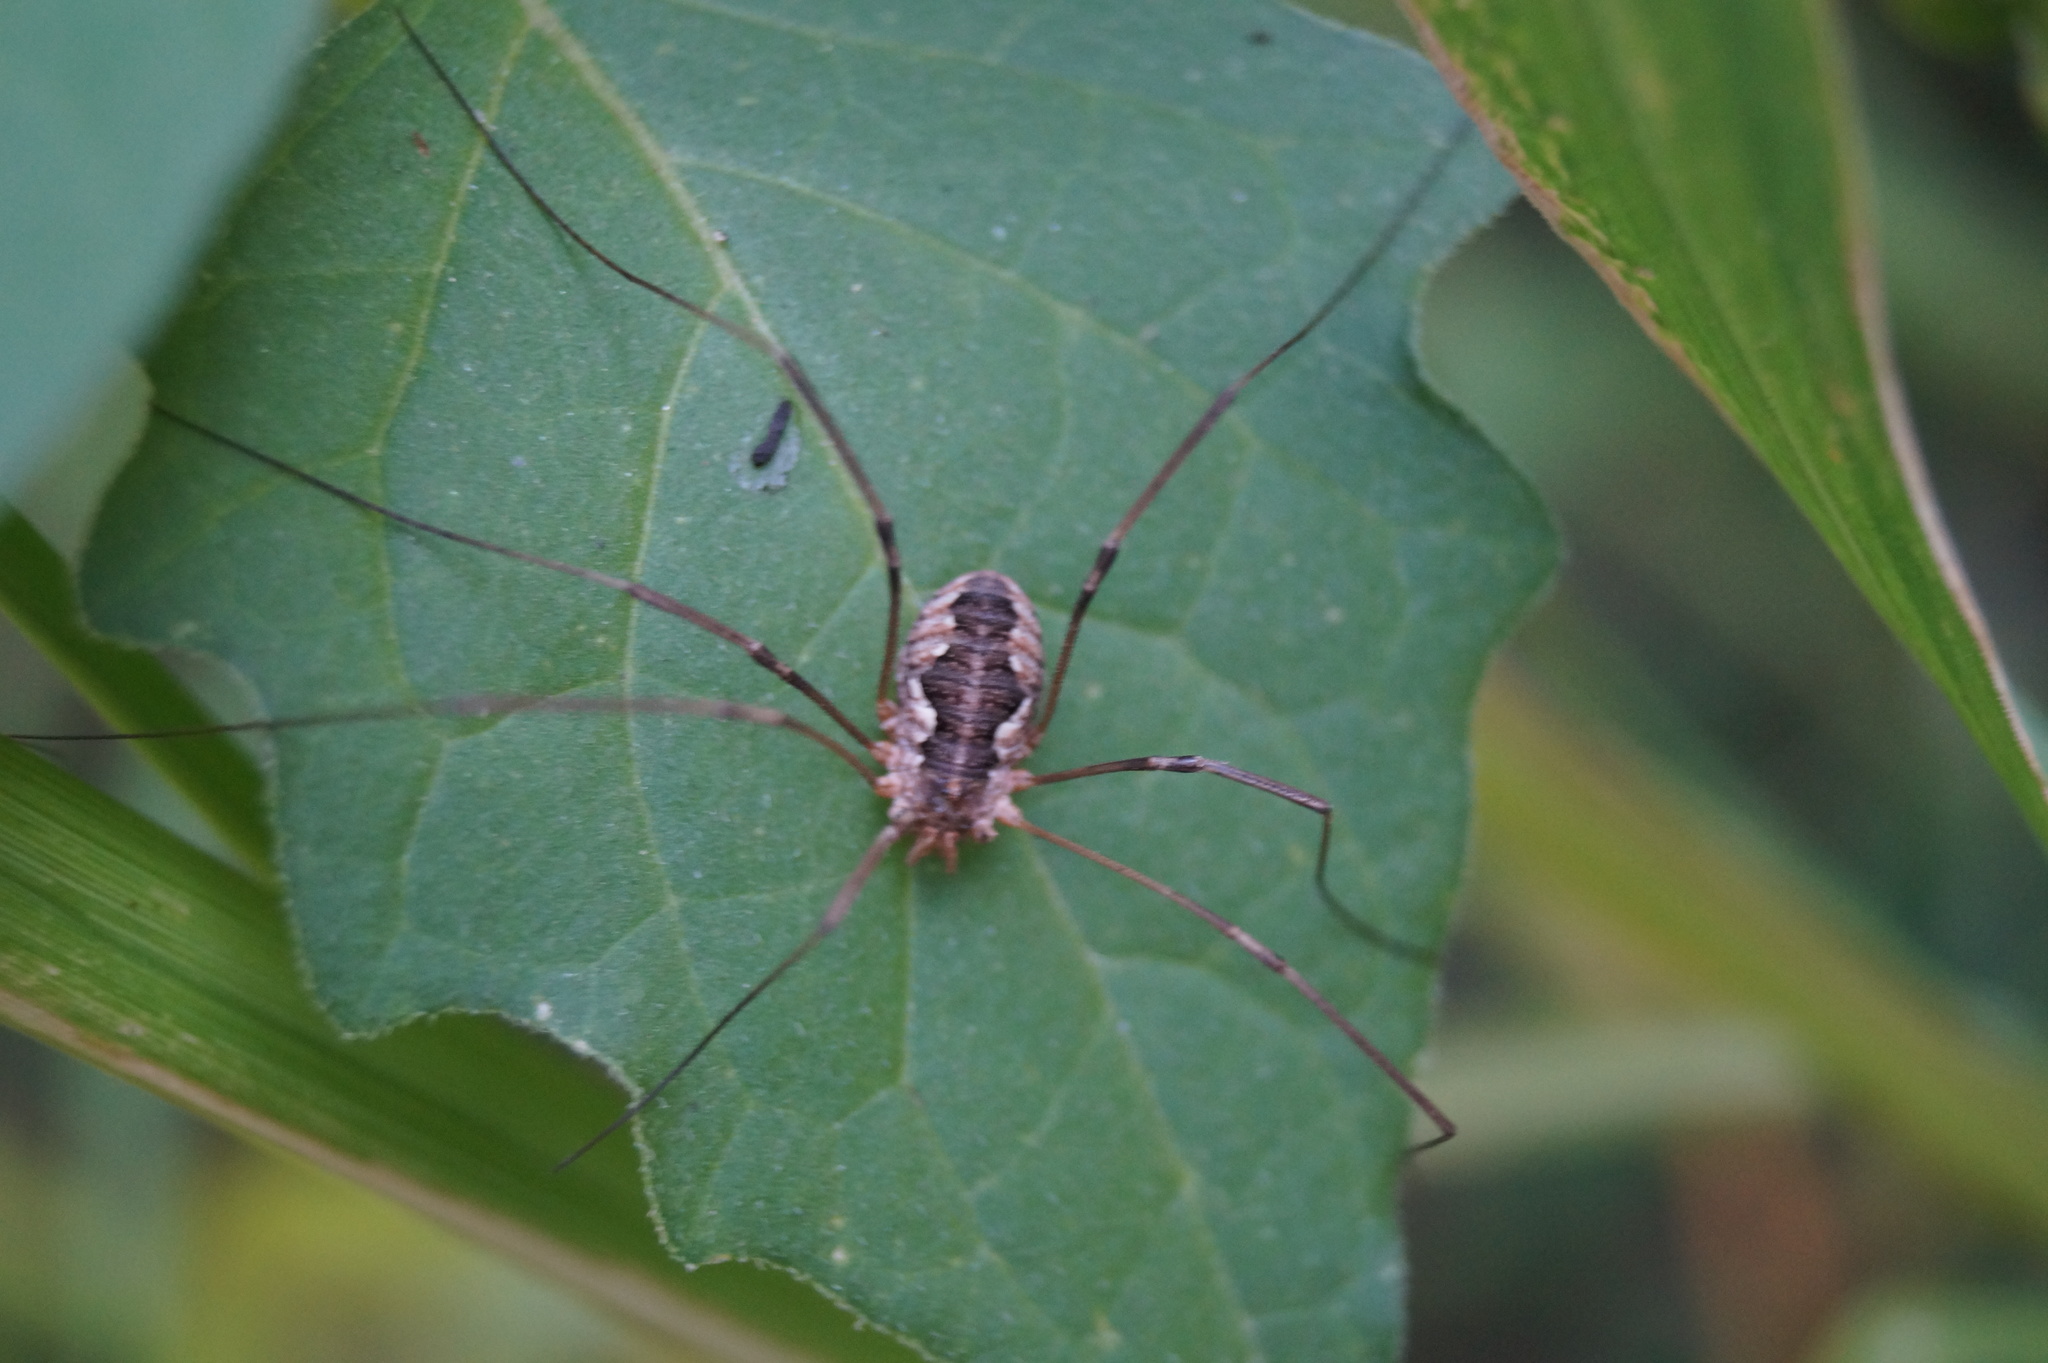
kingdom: Animalia
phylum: Arthropoda
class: Arachnida
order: Opiliones
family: Phalangiidae
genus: Phalangium
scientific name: Phalangium opilio
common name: Daddy longleg
